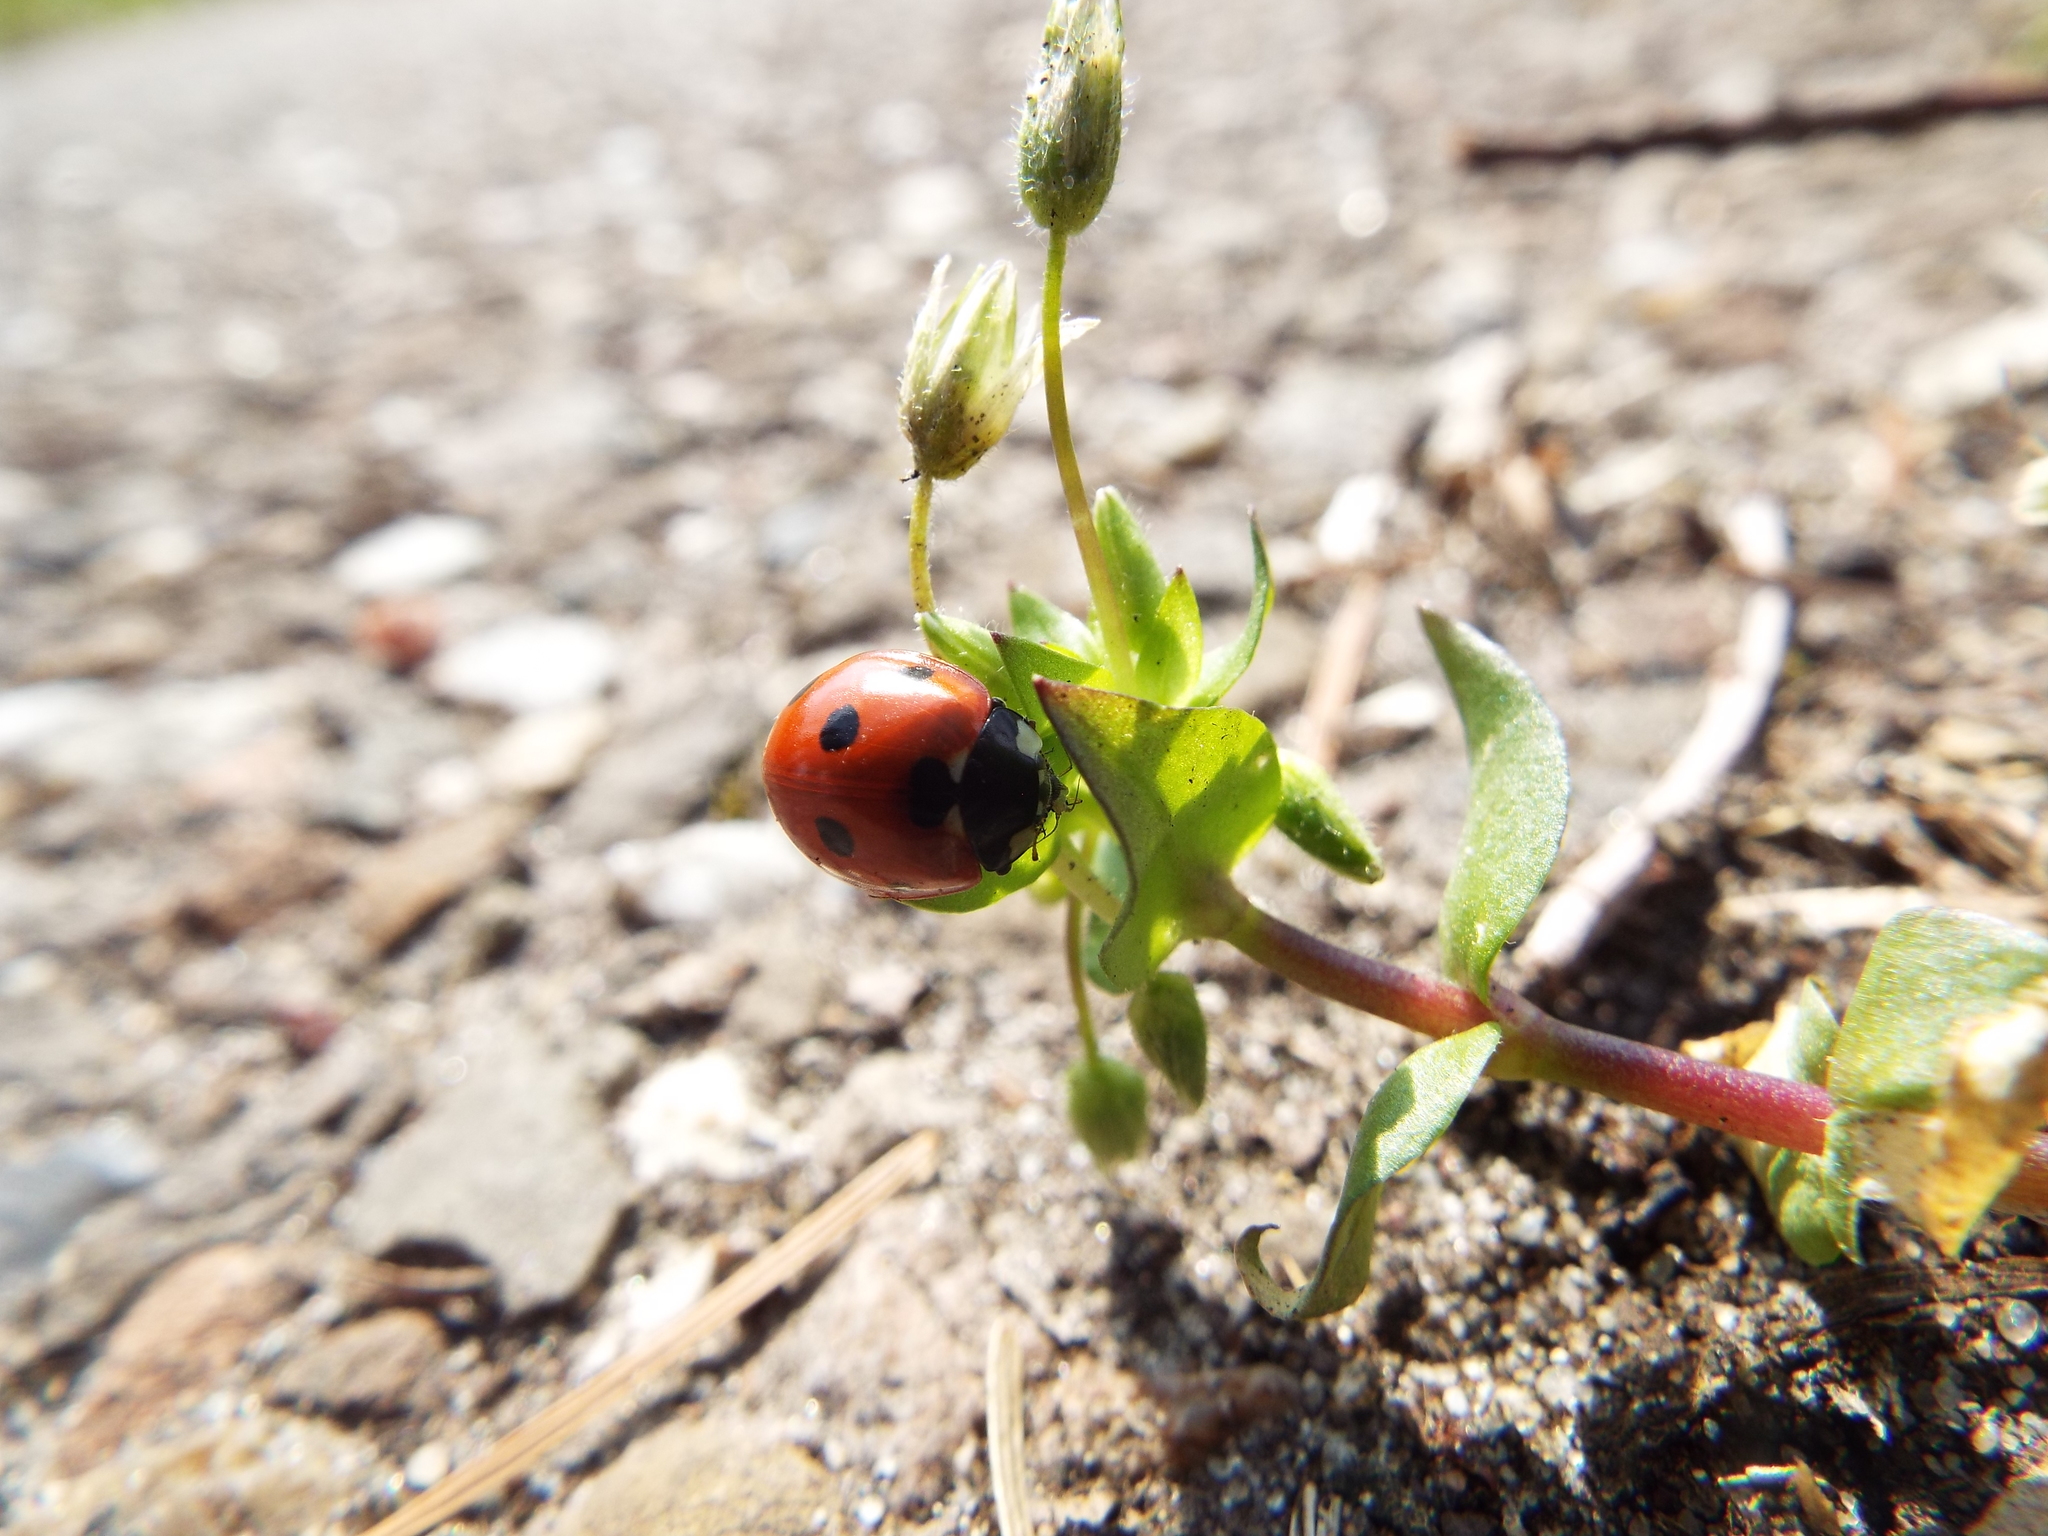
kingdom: Animalia
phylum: Arthropoda
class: Insecta
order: Coleoptera
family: Coccinellidae
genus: Coccinella
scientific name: Coccinella septempunctata
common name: Sevenspotted lady beetle
